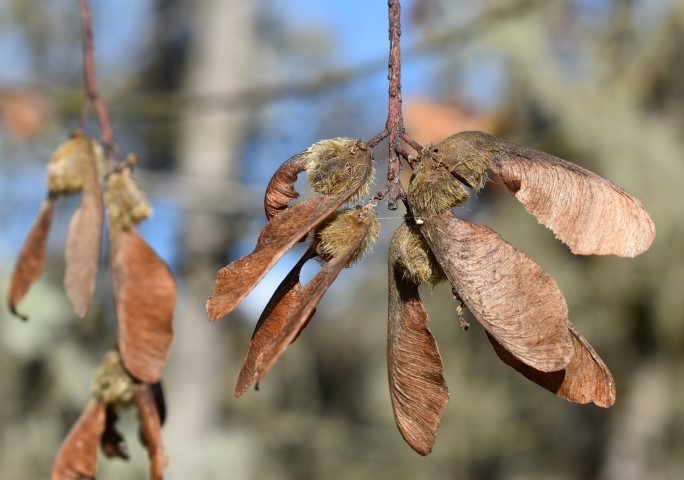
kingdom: Plantae
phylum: Tracheophyta
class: Magnoliopsida
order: Sapindales
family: Sapindaceae
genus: Acer
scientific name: Acer macrophyllum
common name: Oregon maple
